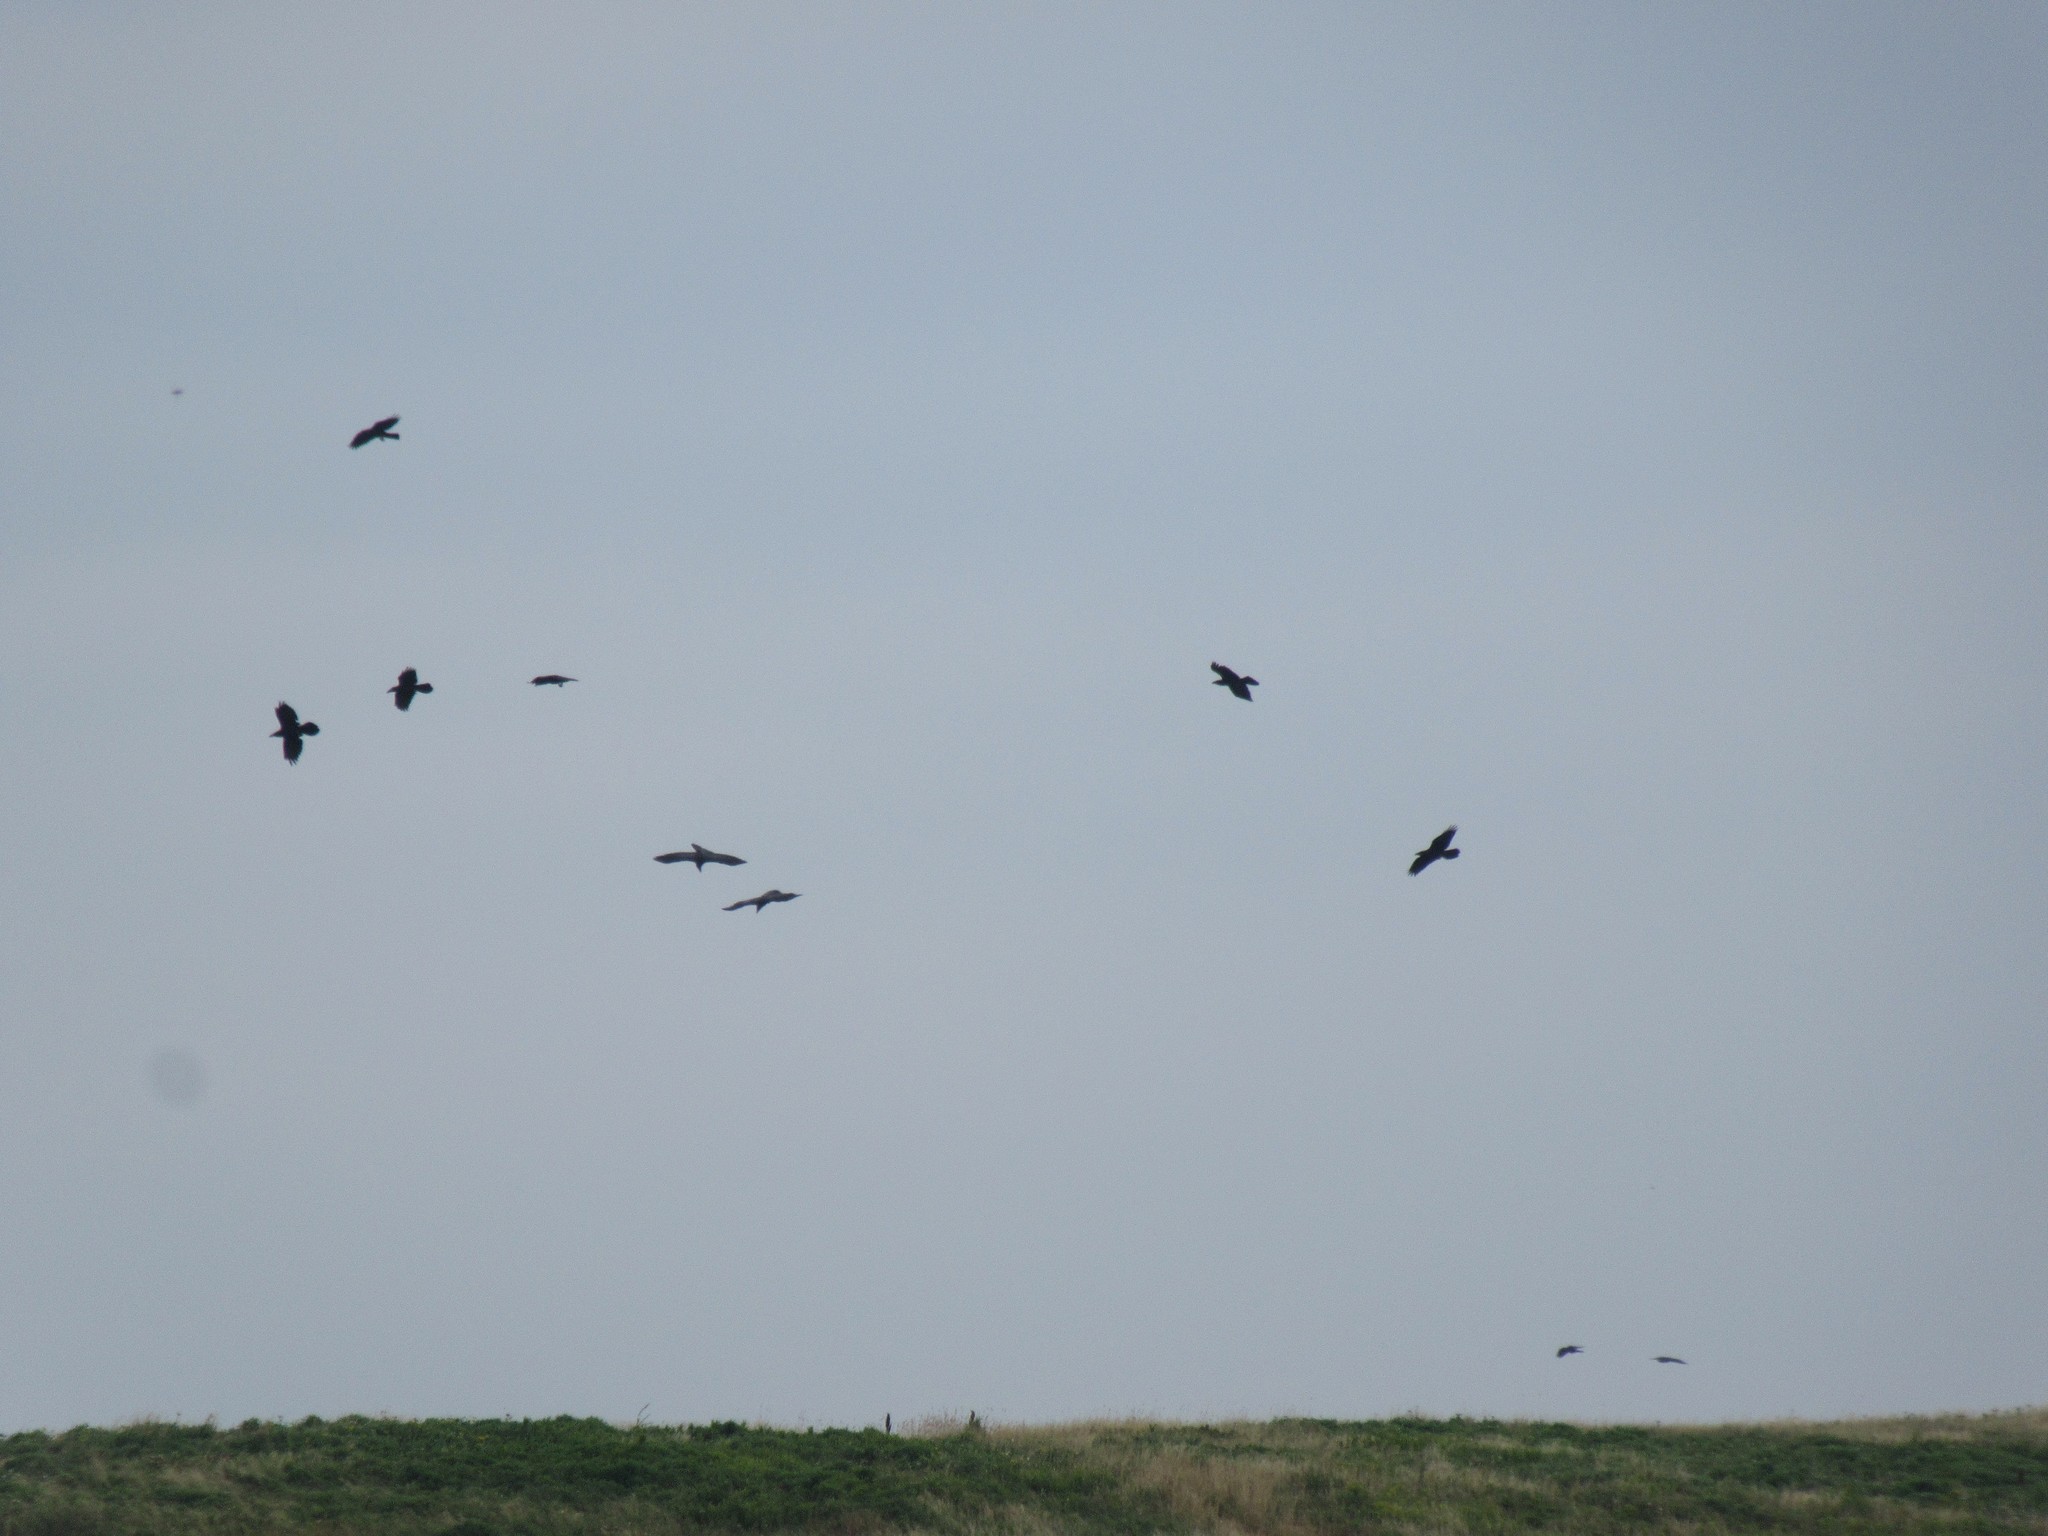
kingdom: Animalia
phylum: Chordata
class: Aves
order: Passeriformes
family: Corvidae
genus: Corvus
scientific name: Corvus corax
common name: Common raven
